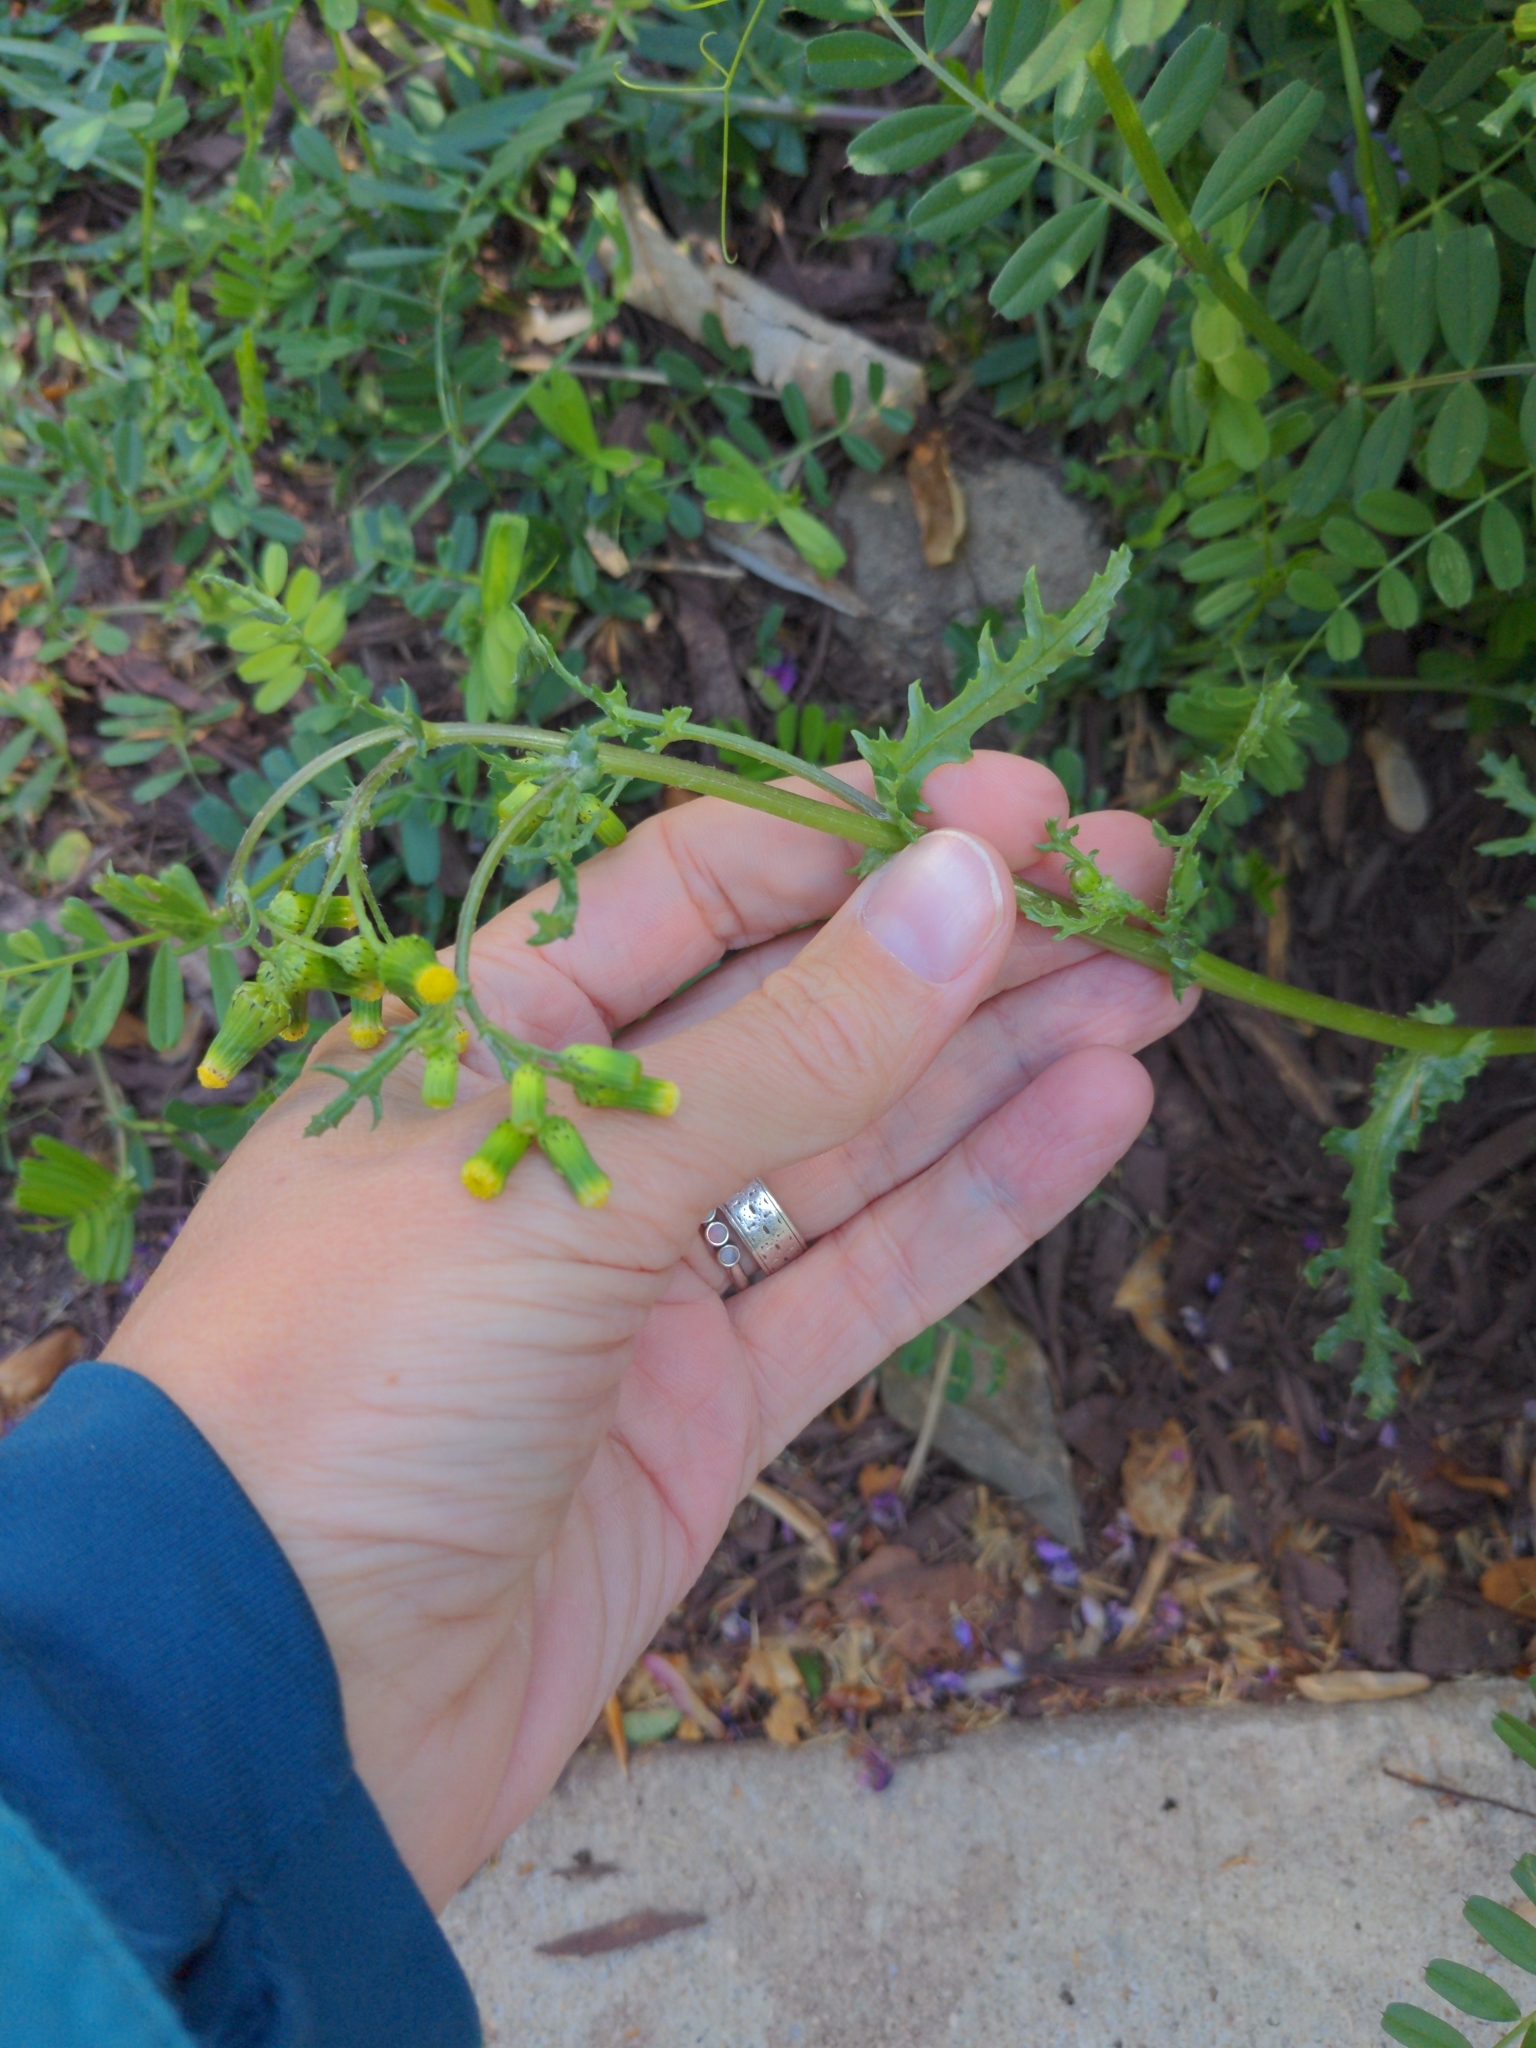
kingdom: Plantae
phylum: Tracheophyta
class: Magnoliopsida
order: Asterales
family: Asteraceae
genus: Senecio
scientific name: Senecio vulgaris
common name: Old-man-in-the-spring
